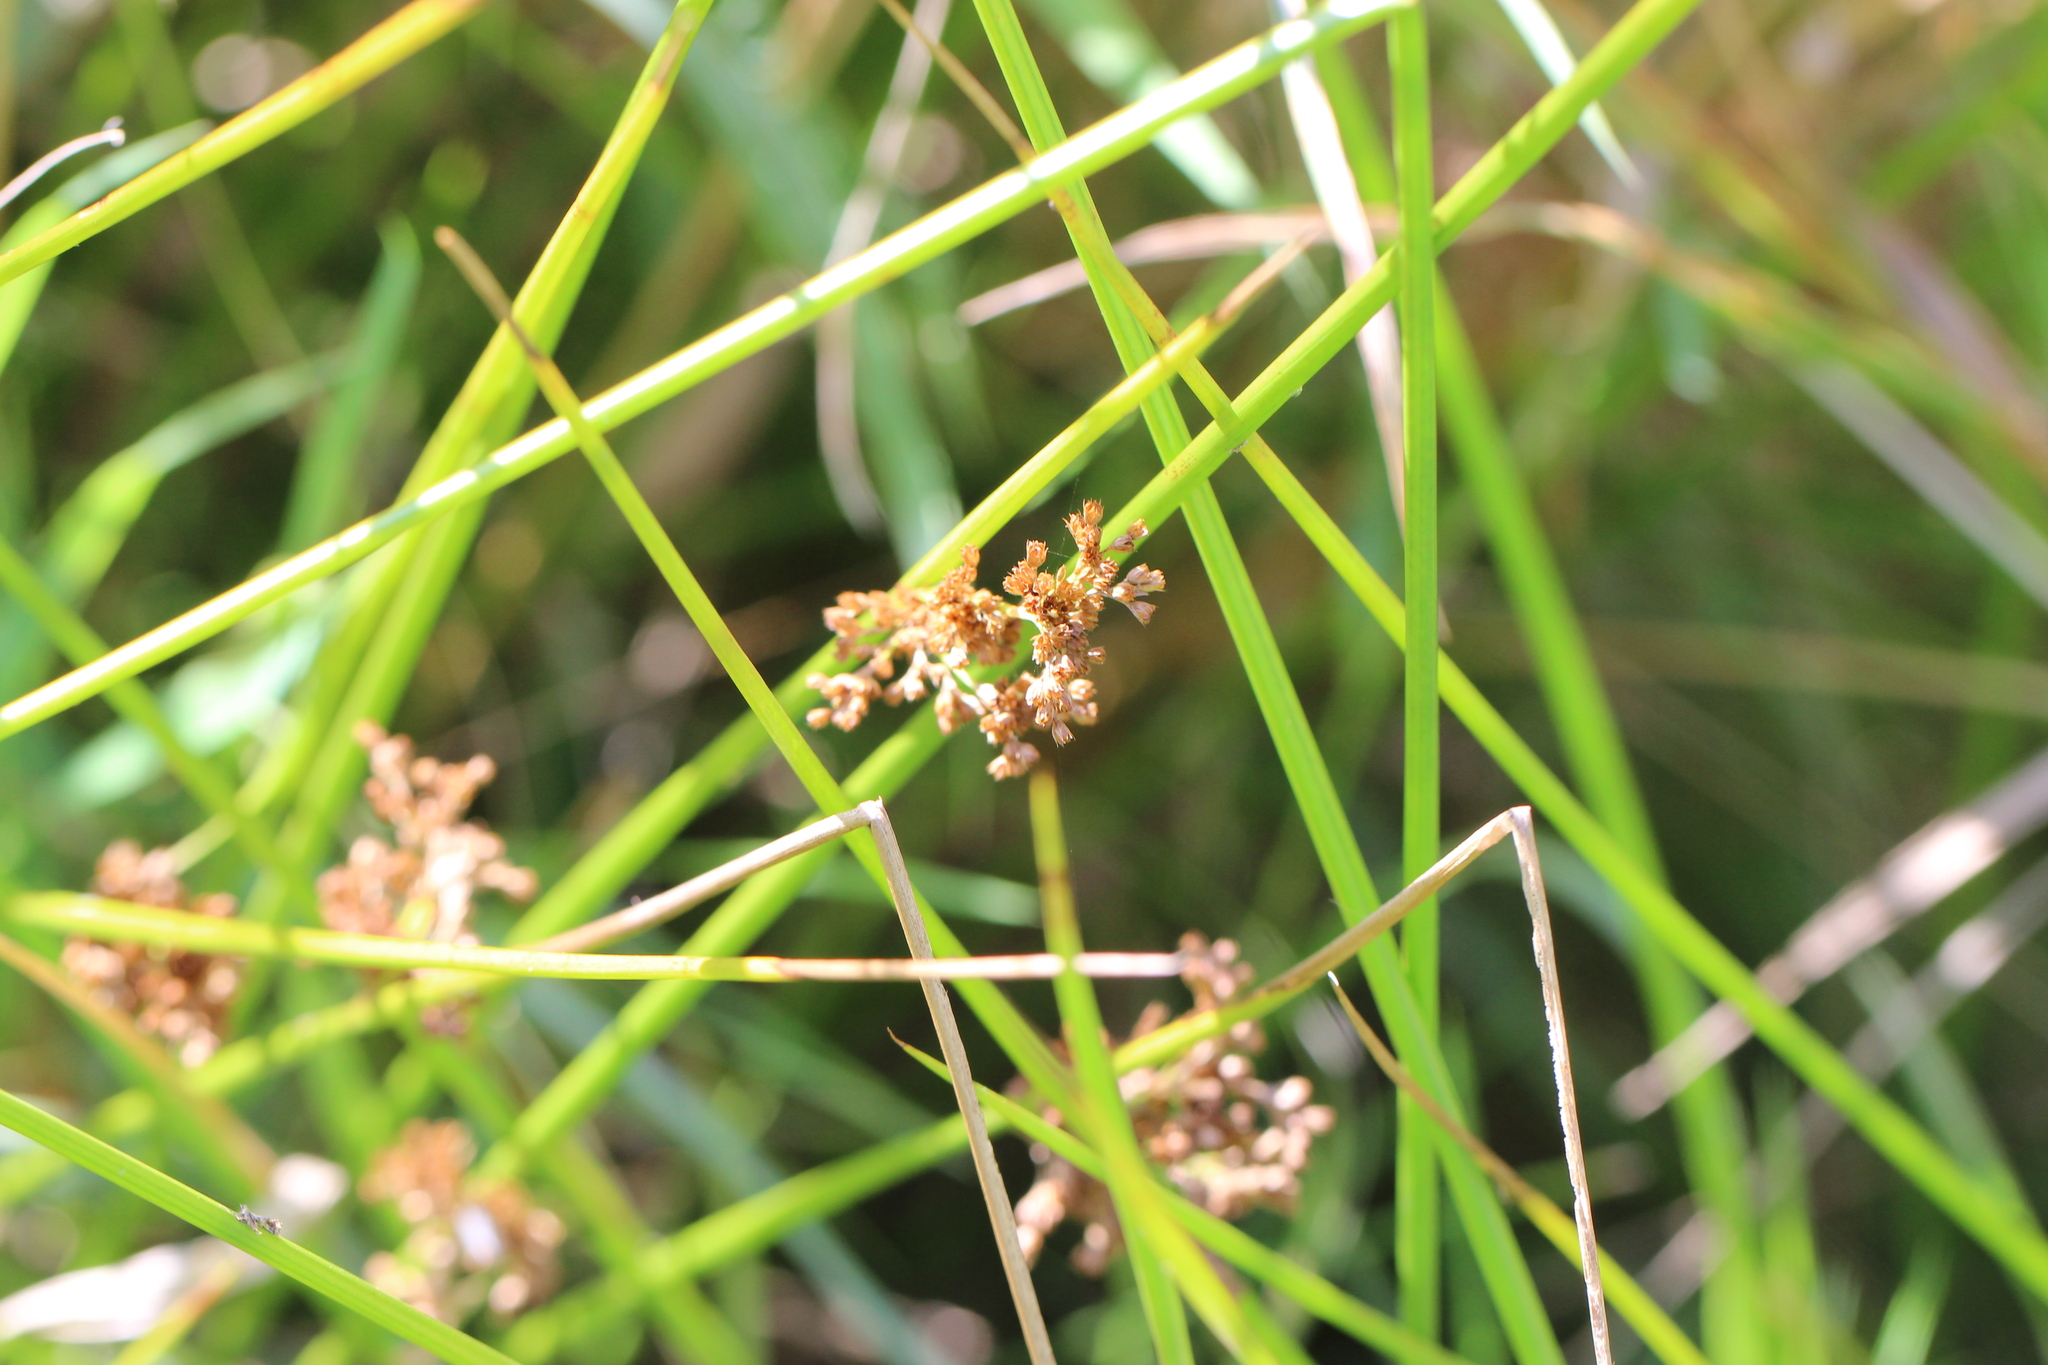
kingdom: Plantae
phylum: Tracheophyta
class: Liliopsida
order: Poales
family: Juncaceae
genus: Juncus
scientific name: Juncus effusus
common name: Soft rush
